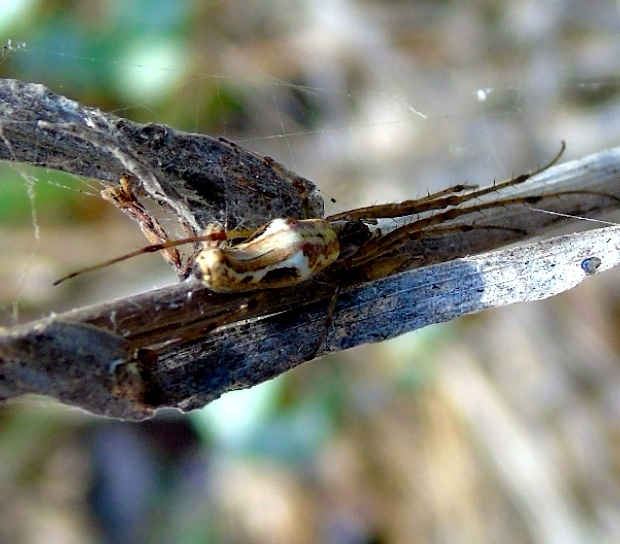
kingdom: Animalia
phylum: Arthropoda
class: Arachnida
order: Araneae
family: Tetragnathidae
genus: Tetragnatha
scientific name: Tetragnatha
